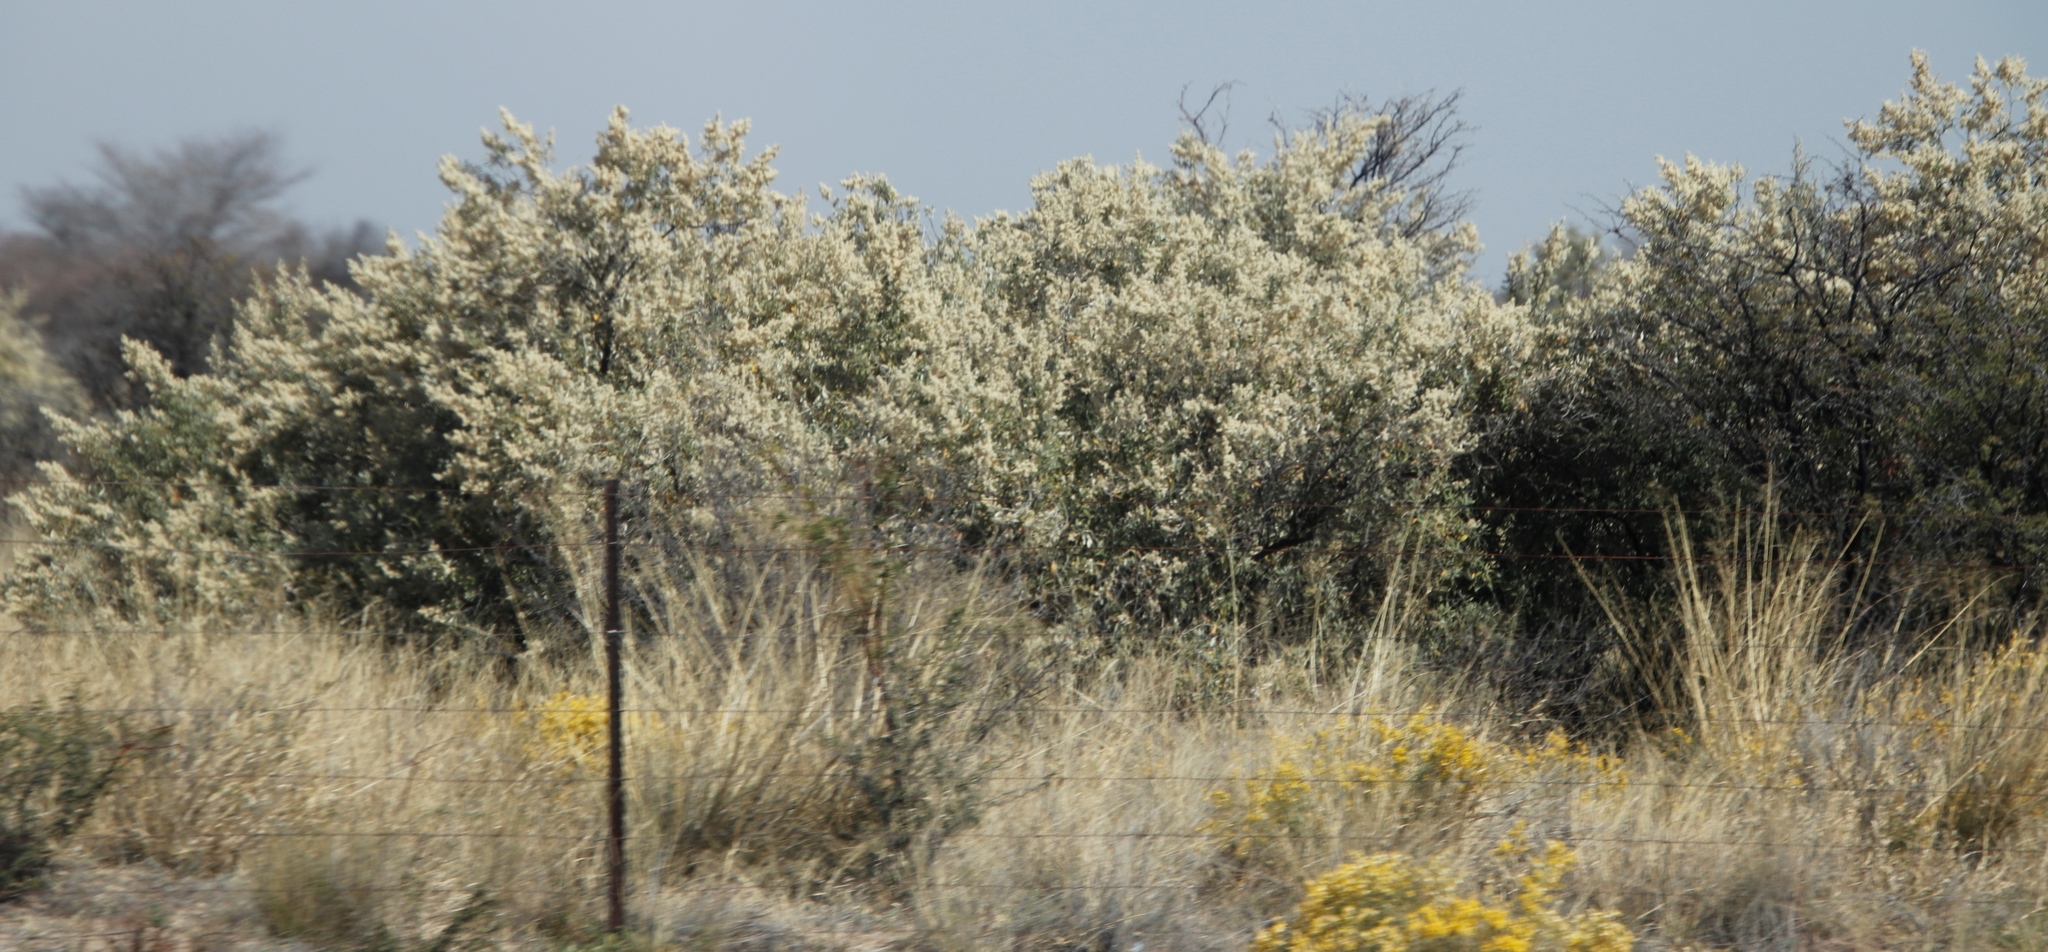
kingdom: Plantae
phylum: Tracheophyta
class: Magnoliopsida
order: Fabales
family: Fabaceae
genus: Senegalia
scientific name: Senegalia mellifera
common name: Hookthorn
